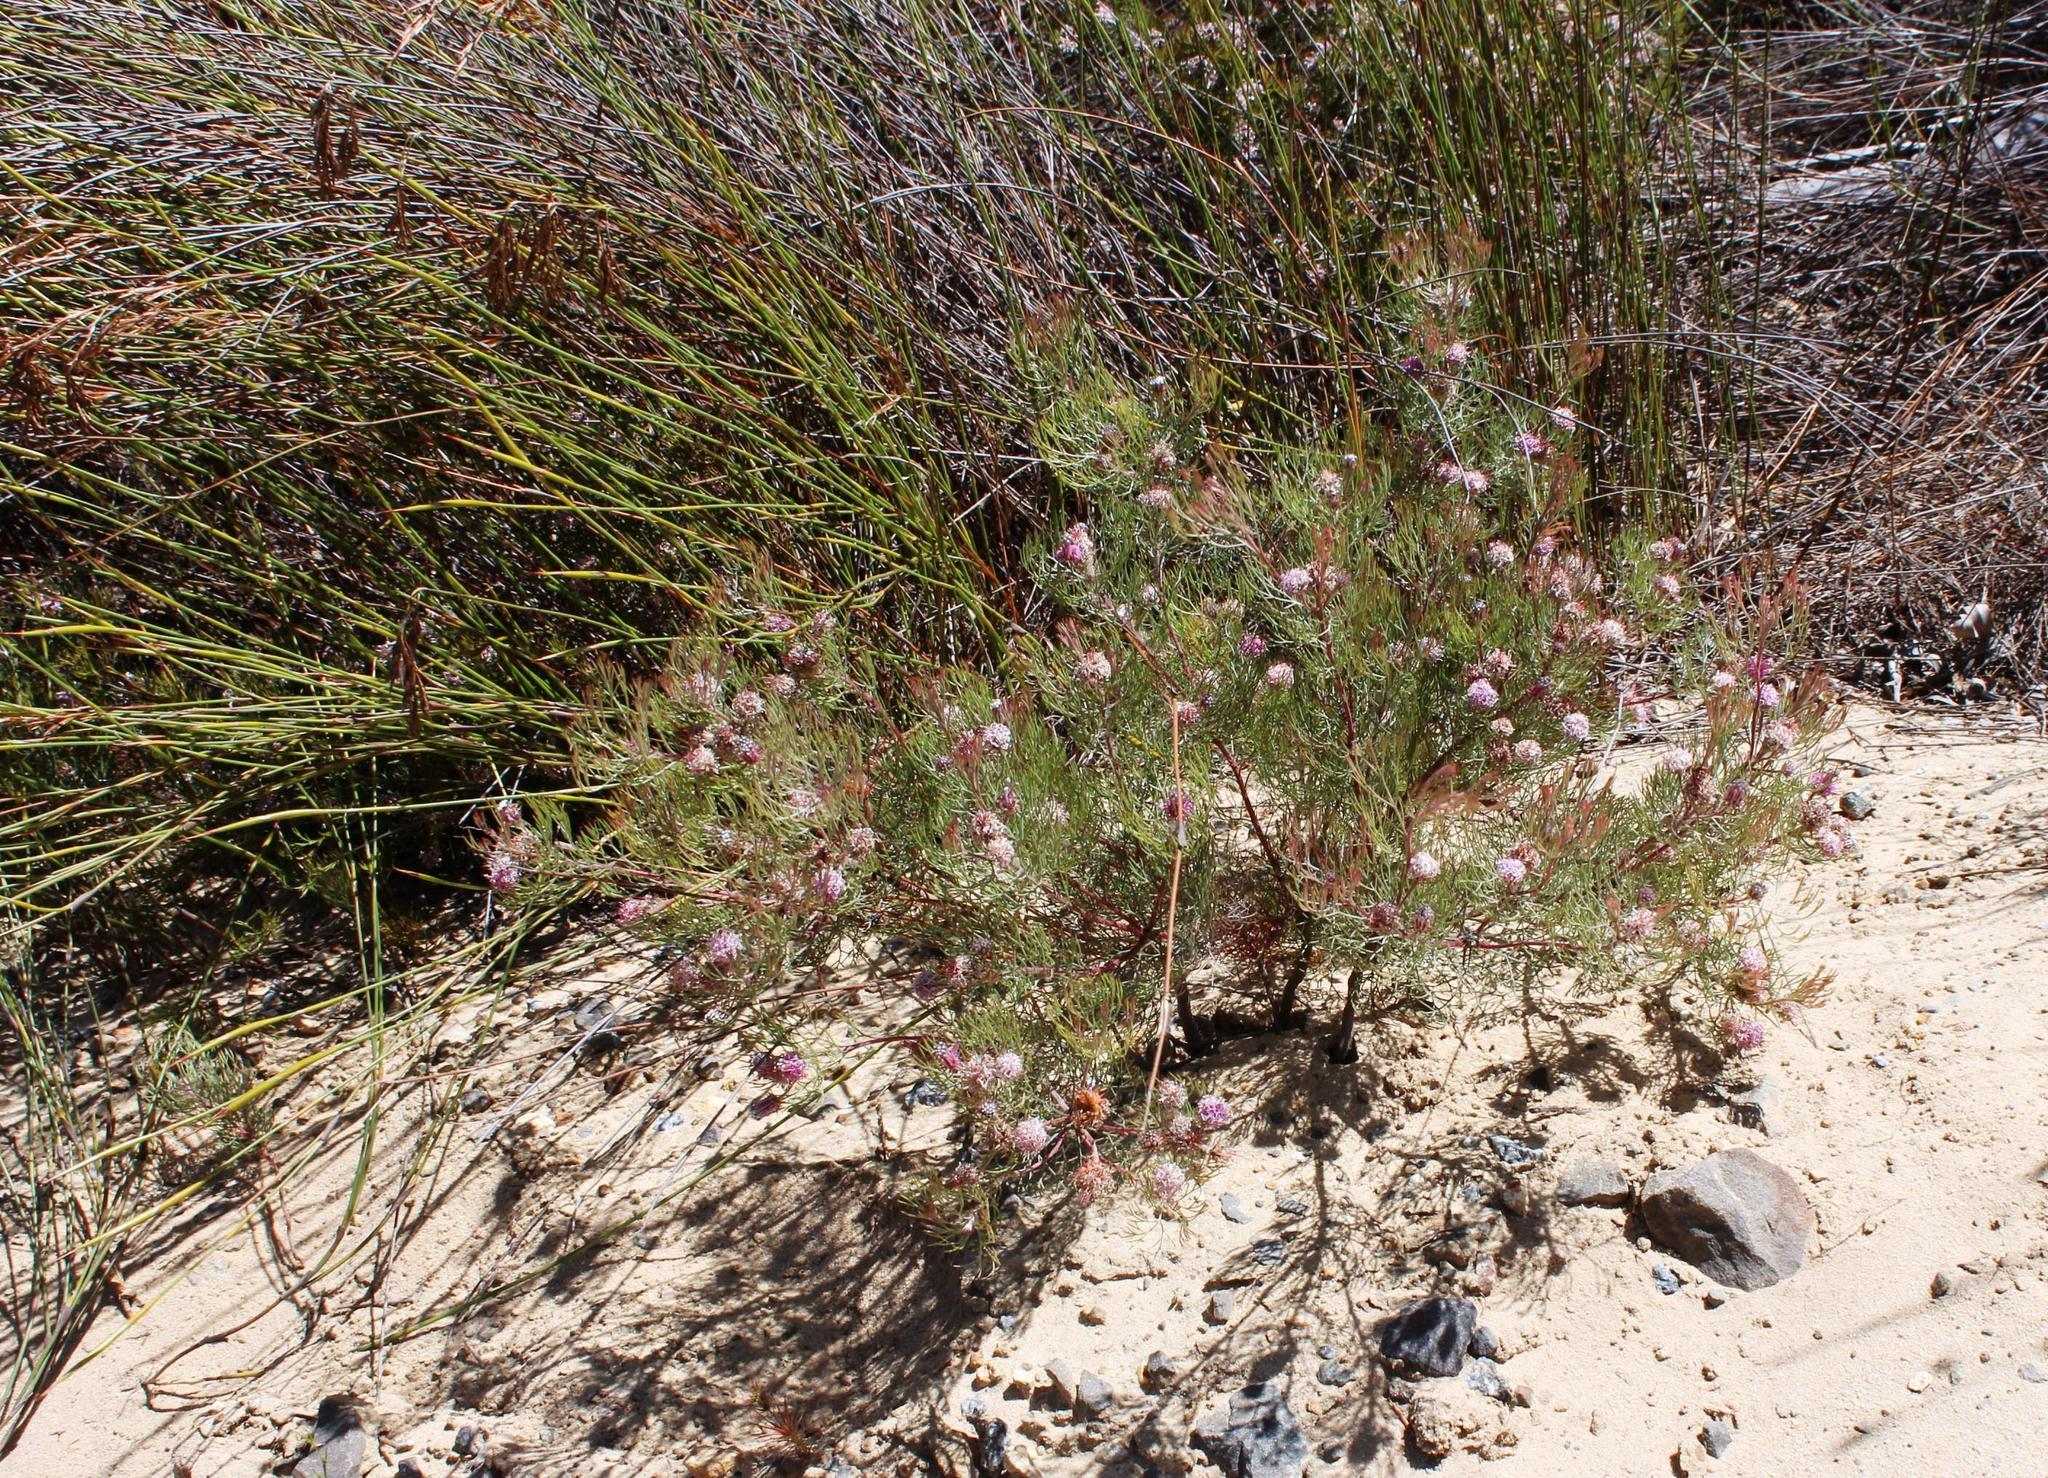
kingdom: Plantae
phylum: Tracheophyta
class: Magnoliopsida
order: Proteales
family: Proteaceae
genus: Serruria
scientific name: Serruria fasciflora
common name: Common pin spiderhead
